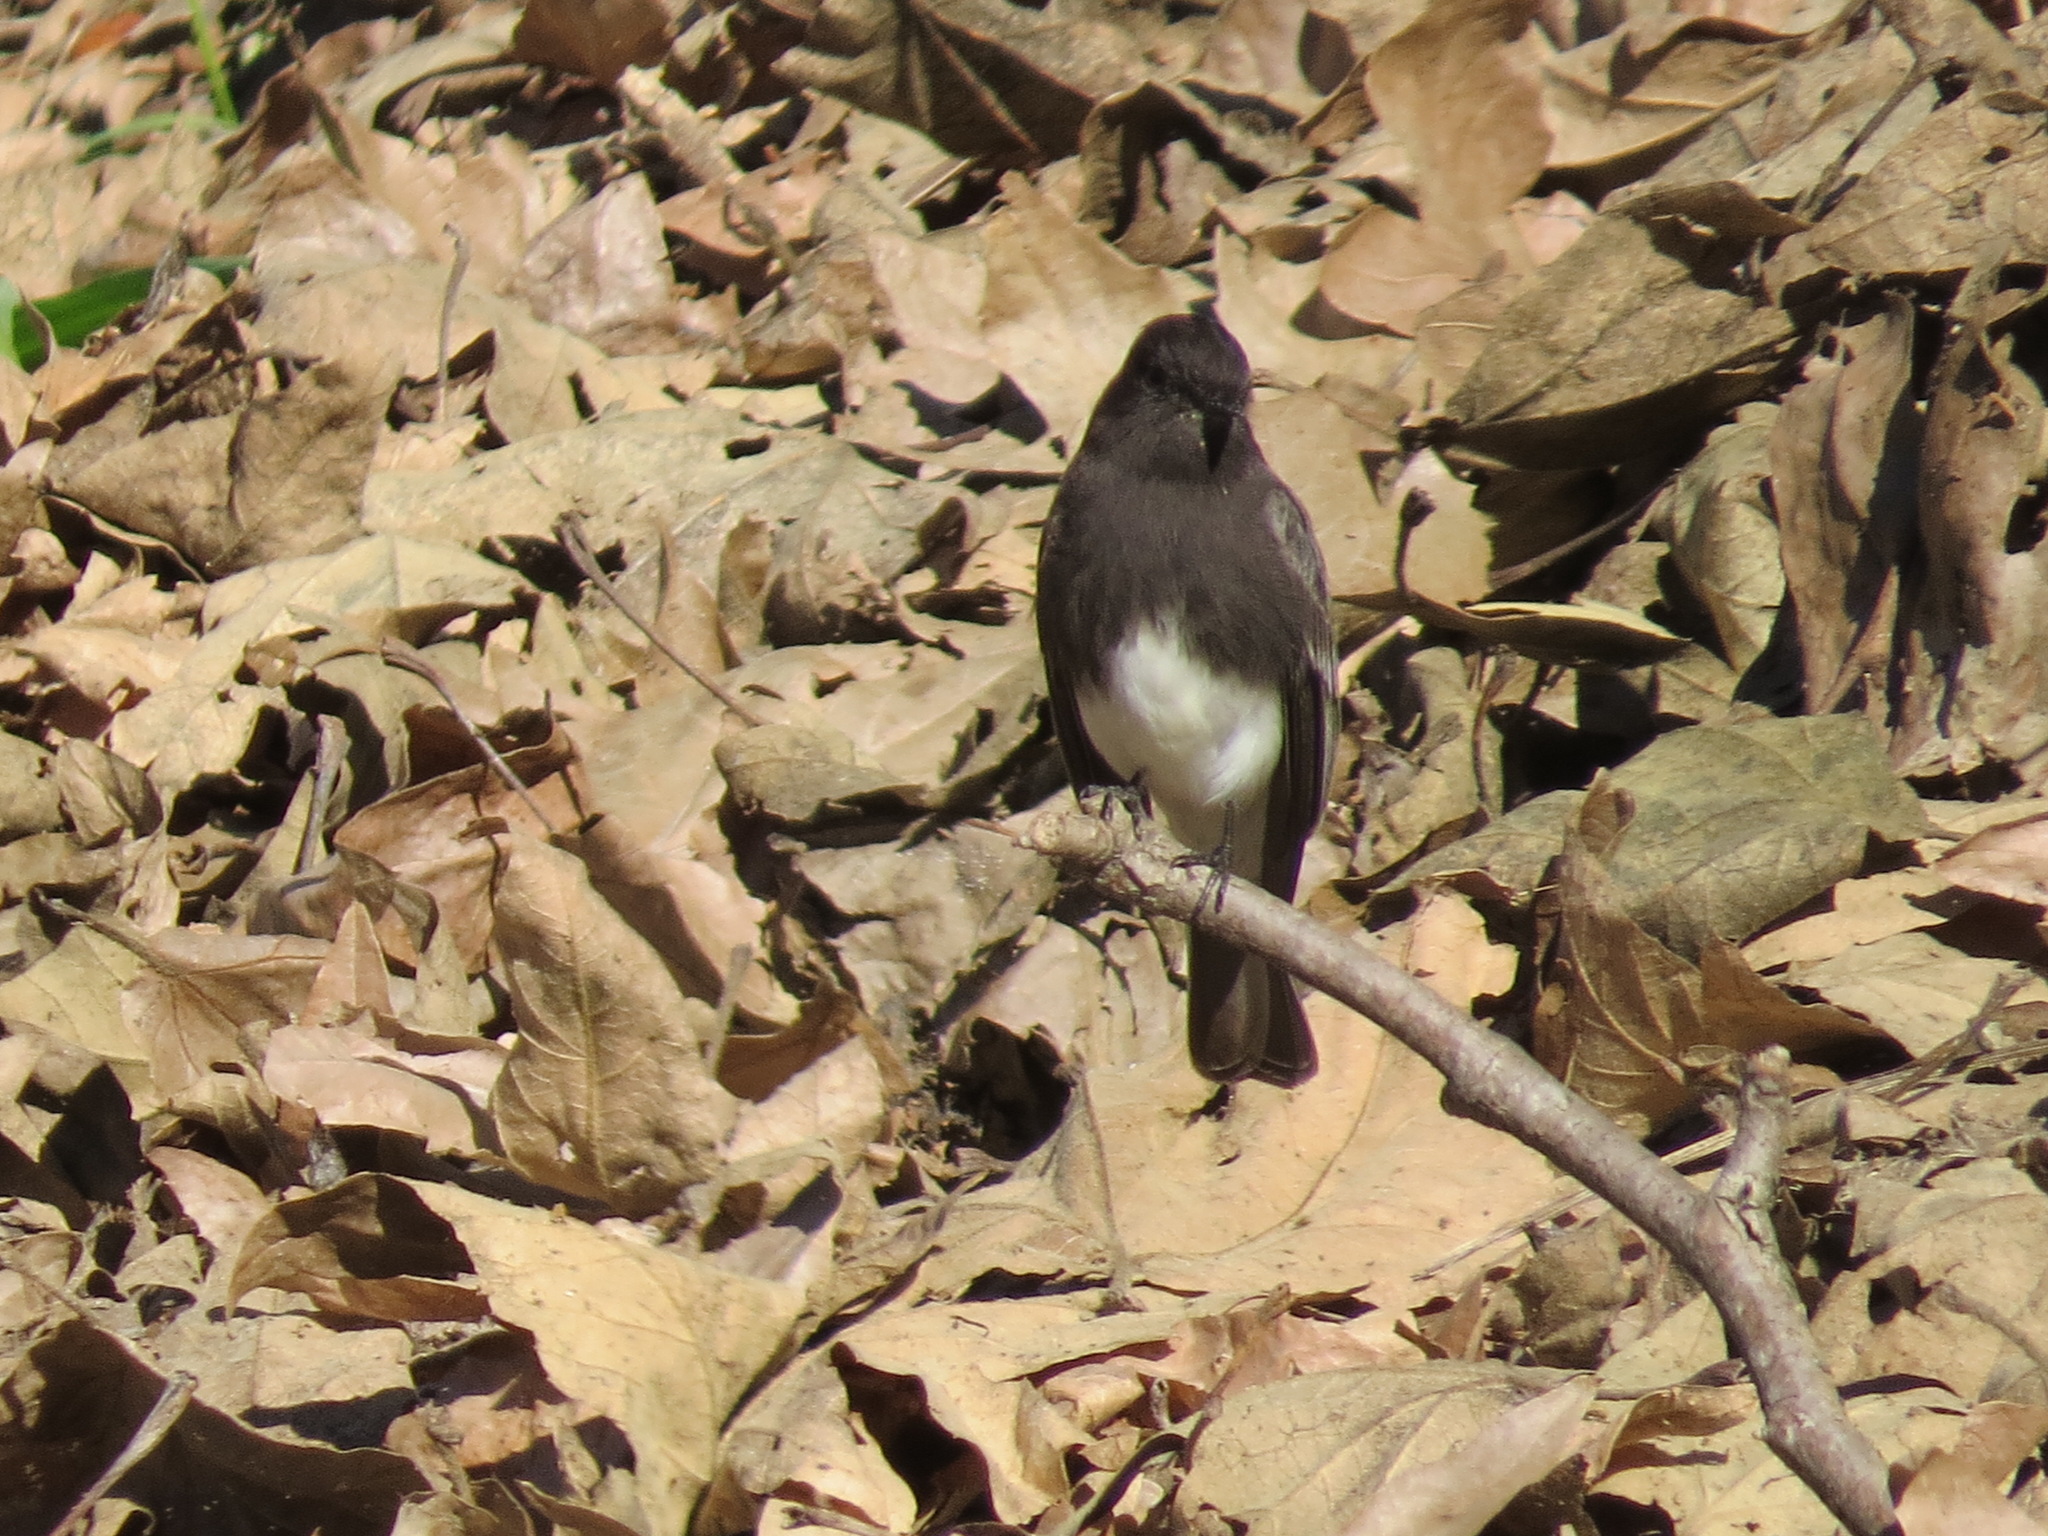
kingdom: Animalia
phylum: Chordata
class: Aves
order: Passeriformes
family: Tyrannidae
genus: Sayornis
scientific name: Sayornis nigricans
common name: Black phoebe
